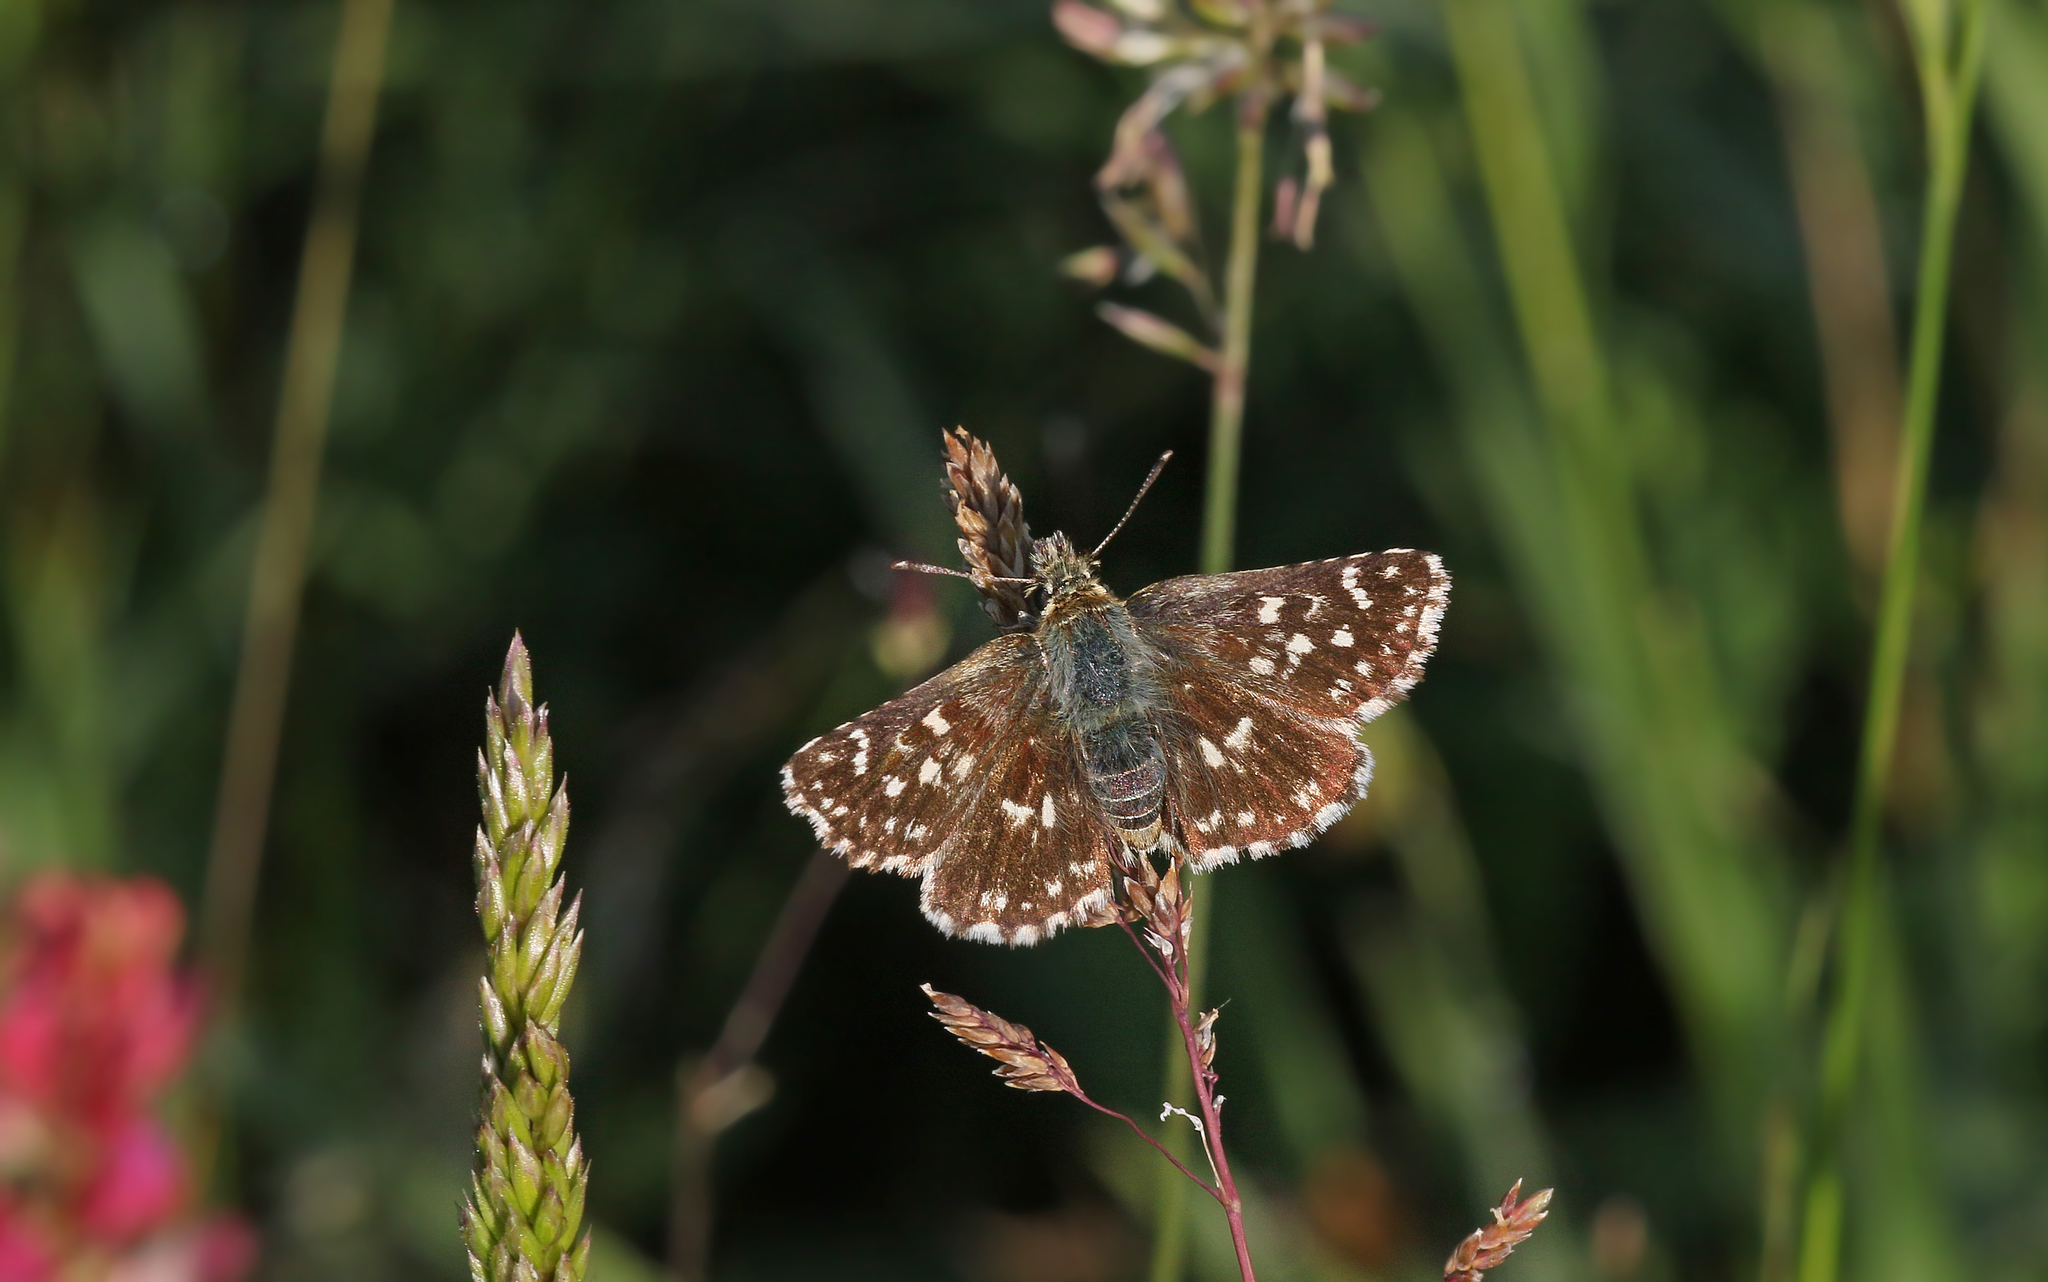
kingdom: Animalia
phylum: Arthropoda
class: Insecta
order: Lepidoptera
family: Hesperiidae
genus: Spialia
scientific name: Spialia sertorius
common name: Red underwing skipper
